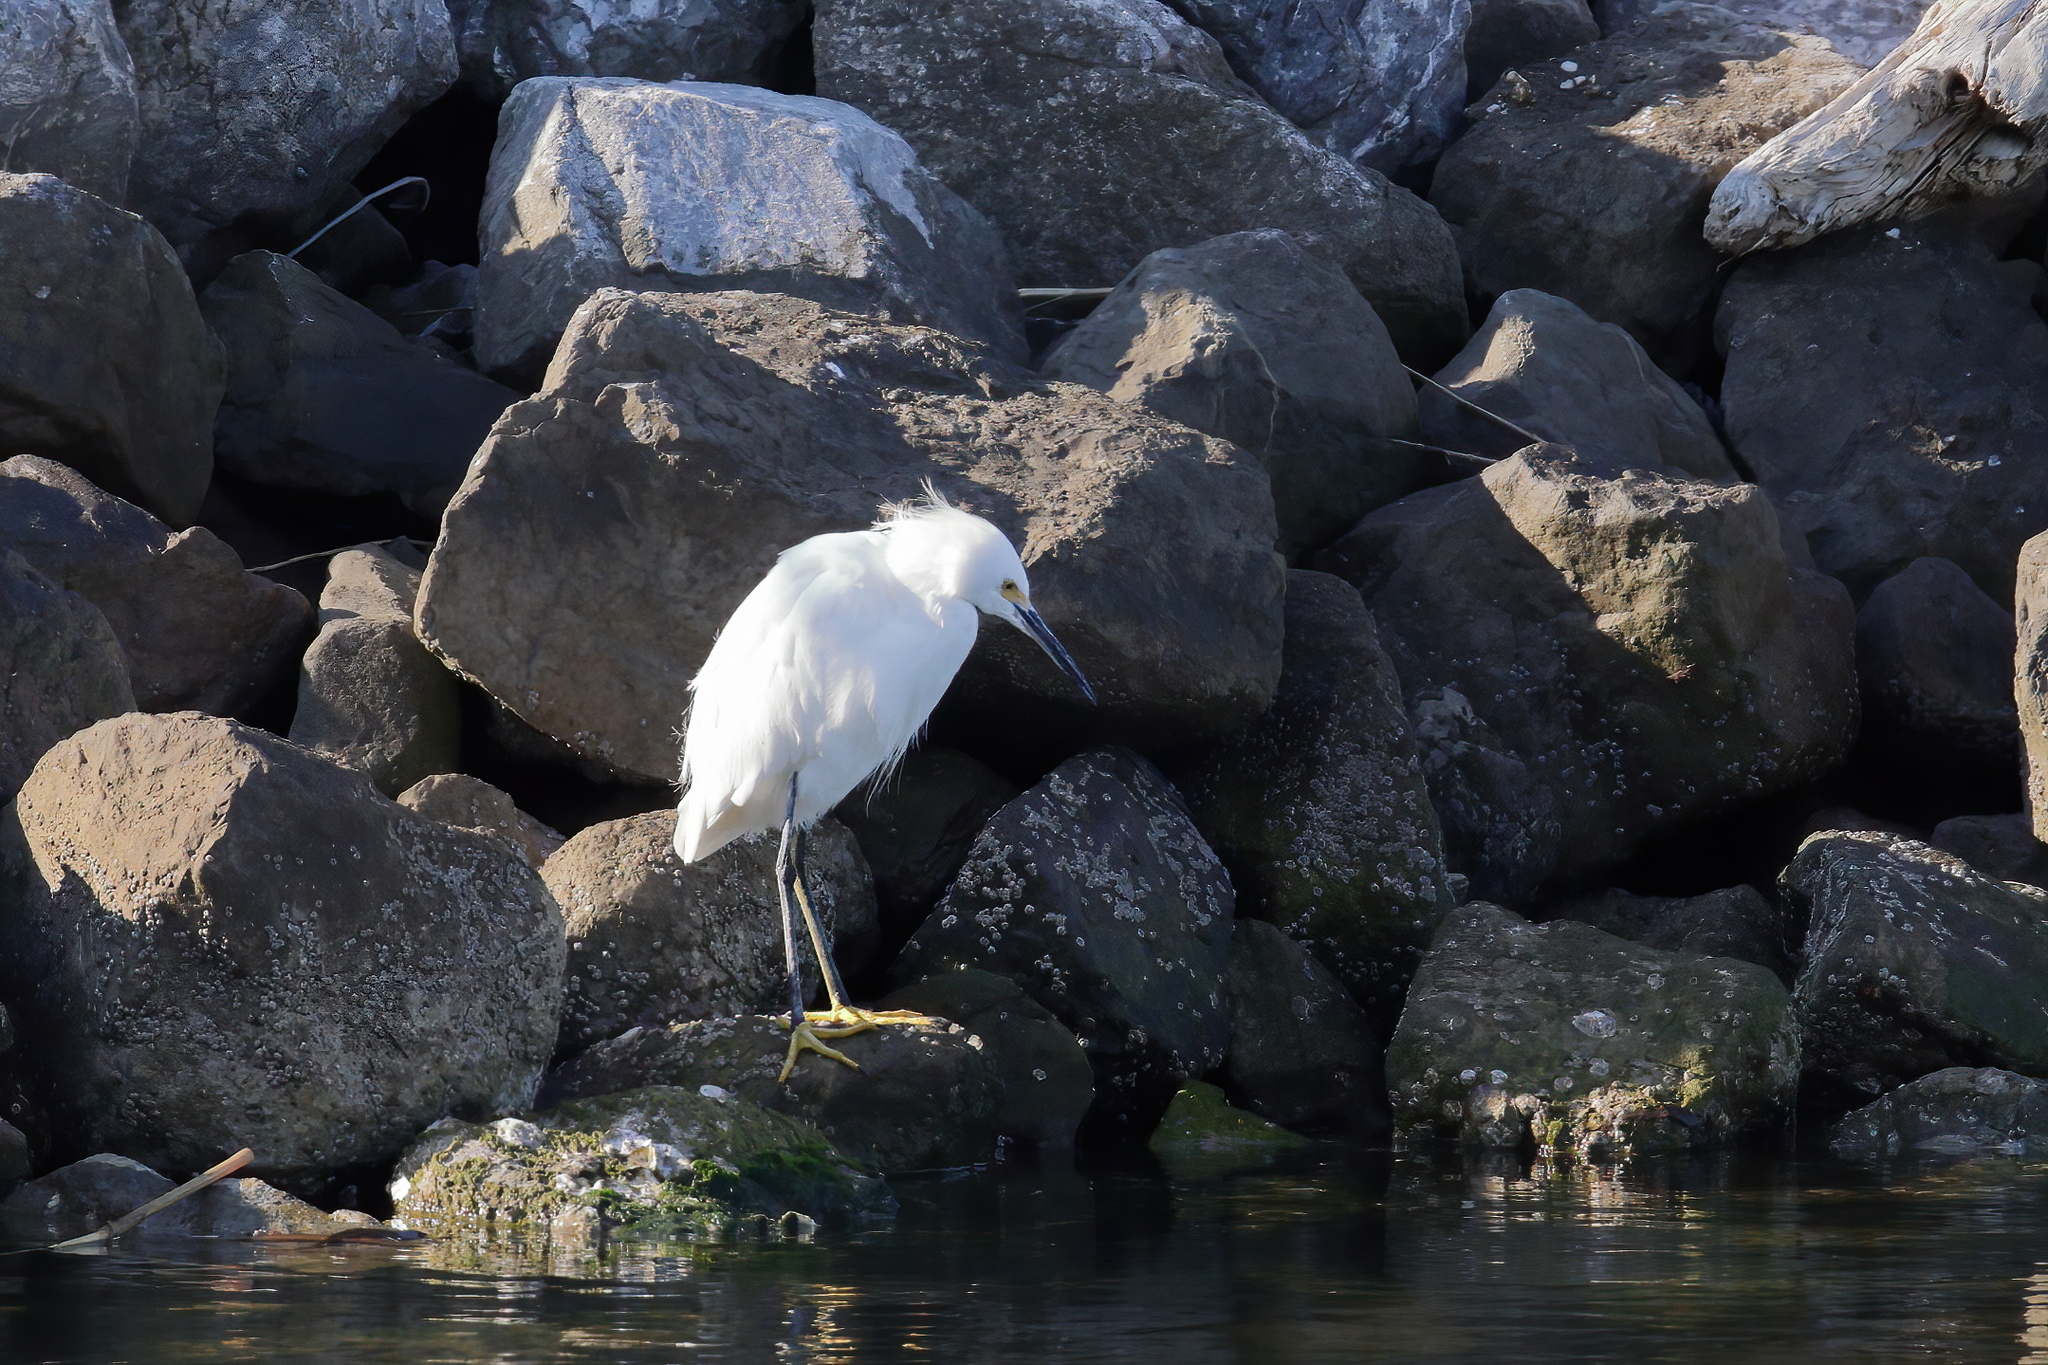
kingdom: Animalia
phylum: Chordata
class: Aves
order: Pelecaniformes
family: Ardeidae
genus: Egretta
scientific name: Egretta thula
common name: Snowy egret
